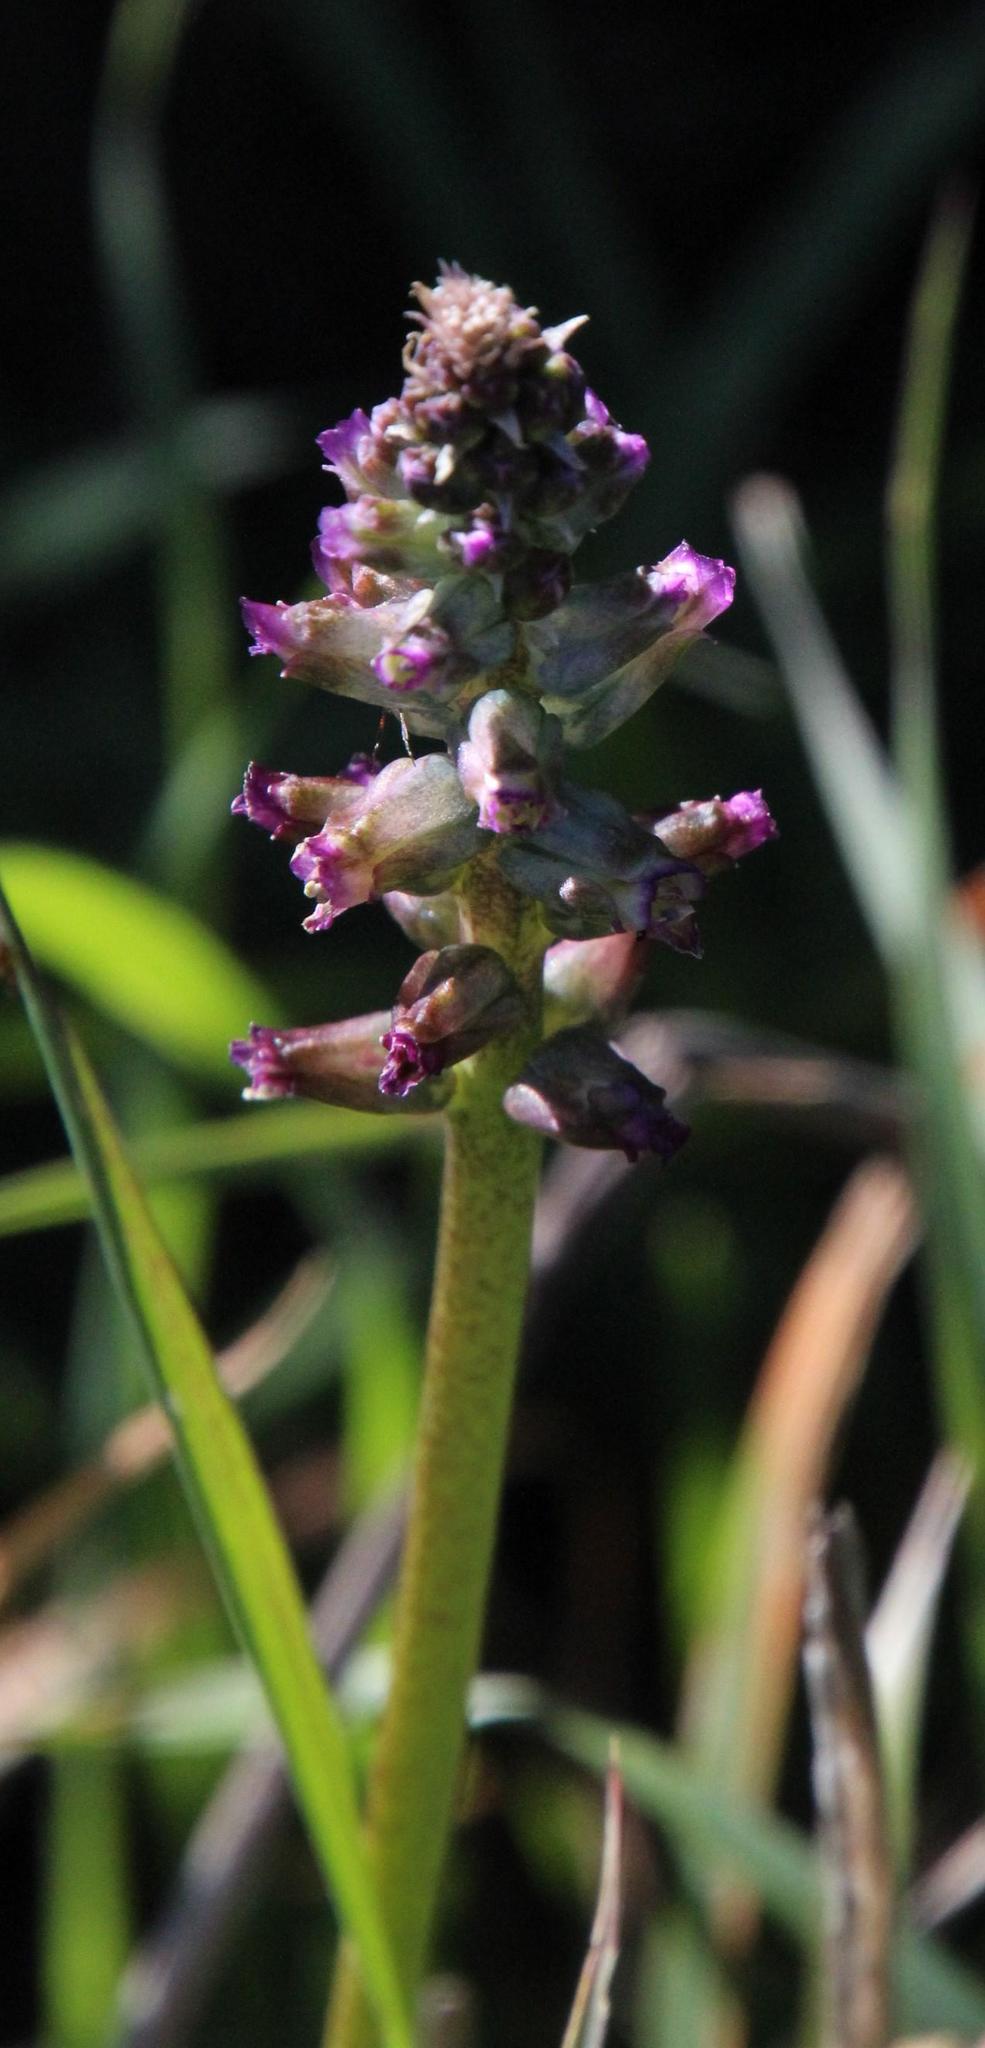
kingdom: Plantae
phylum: Tracheophyta
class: Liliopsida
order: Asparagales
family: Asparagaceae
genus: Lachenalia
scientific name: Lachenalia obscura
